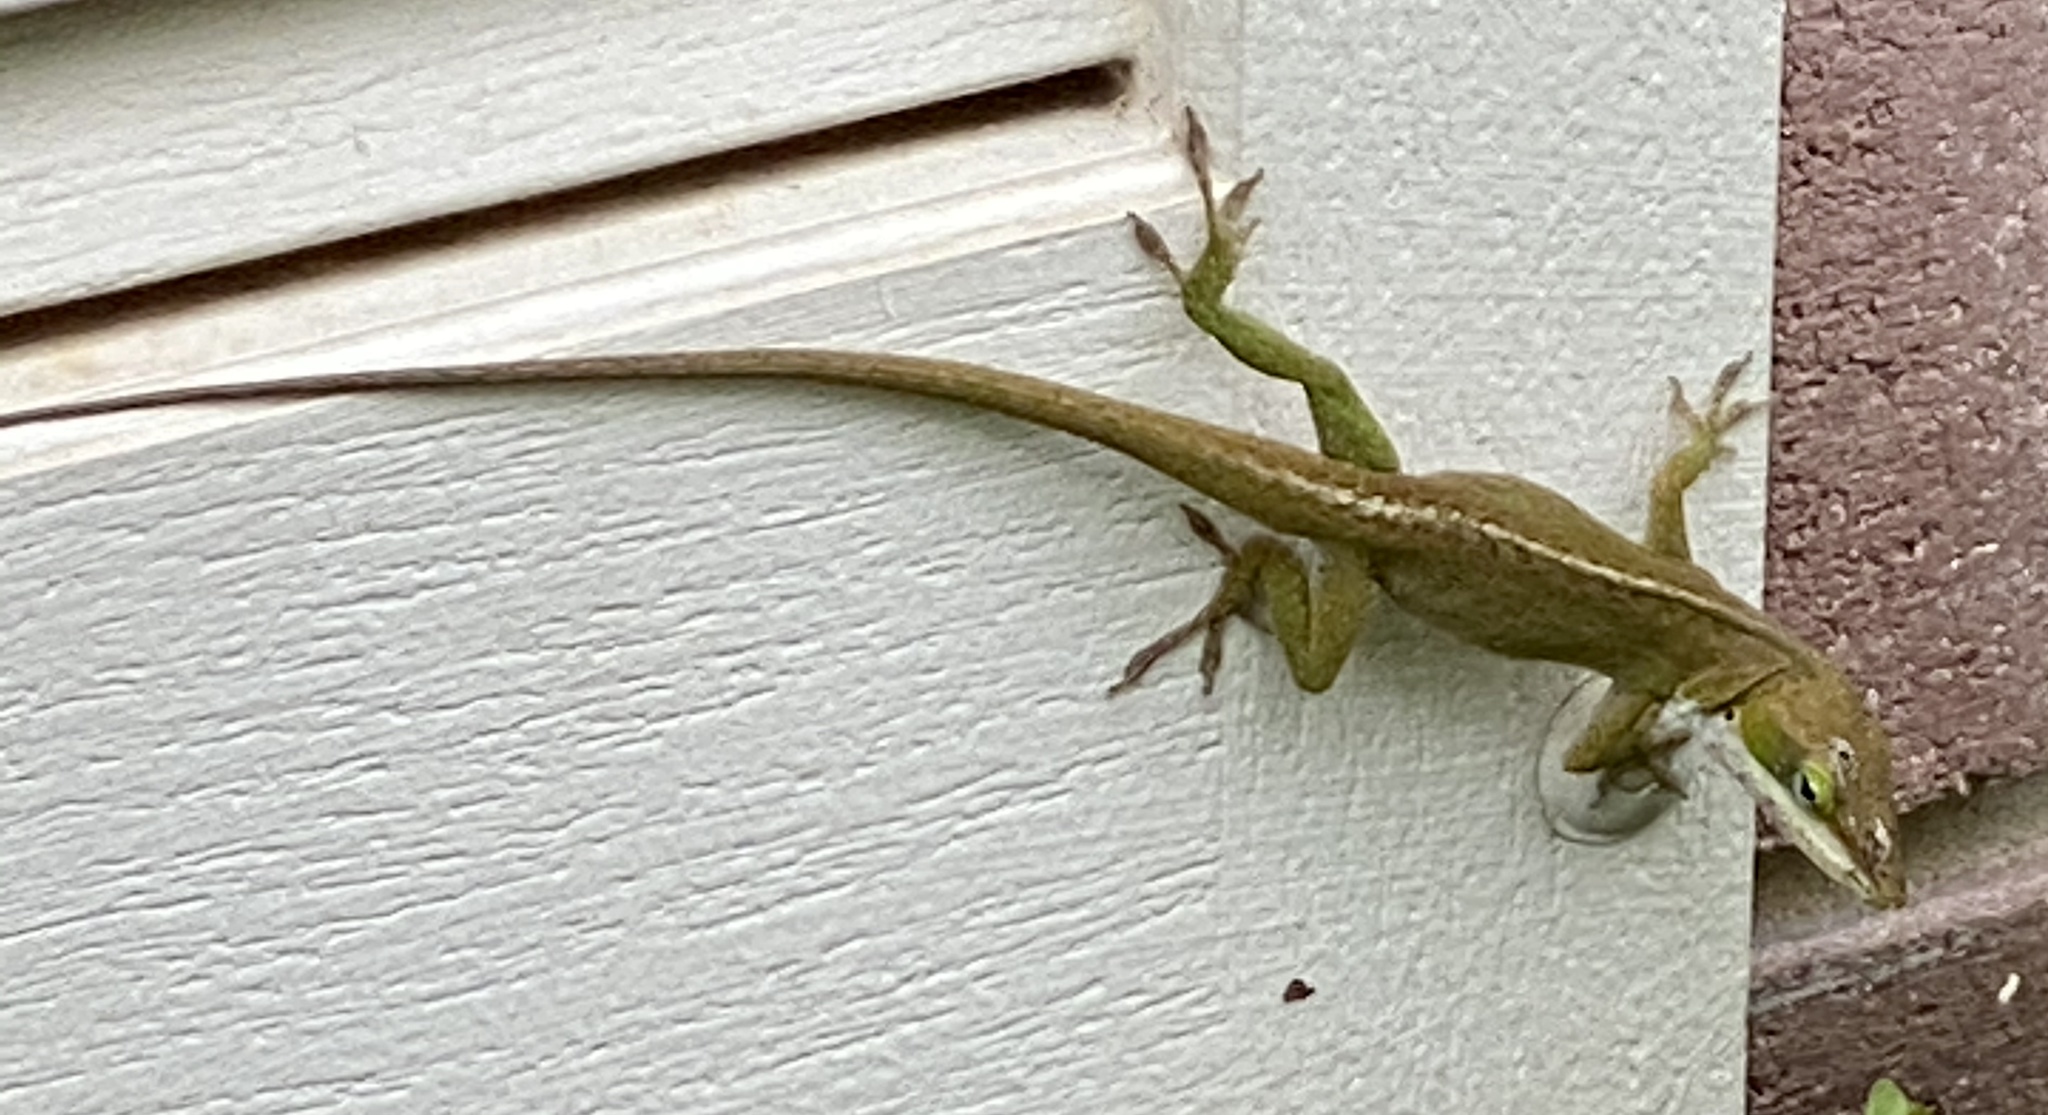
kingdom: Animalia
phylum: Chordata
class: Squamata
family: Dactyloidae
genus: Anolis
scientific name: Anolis carolinensis
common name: Green anole
